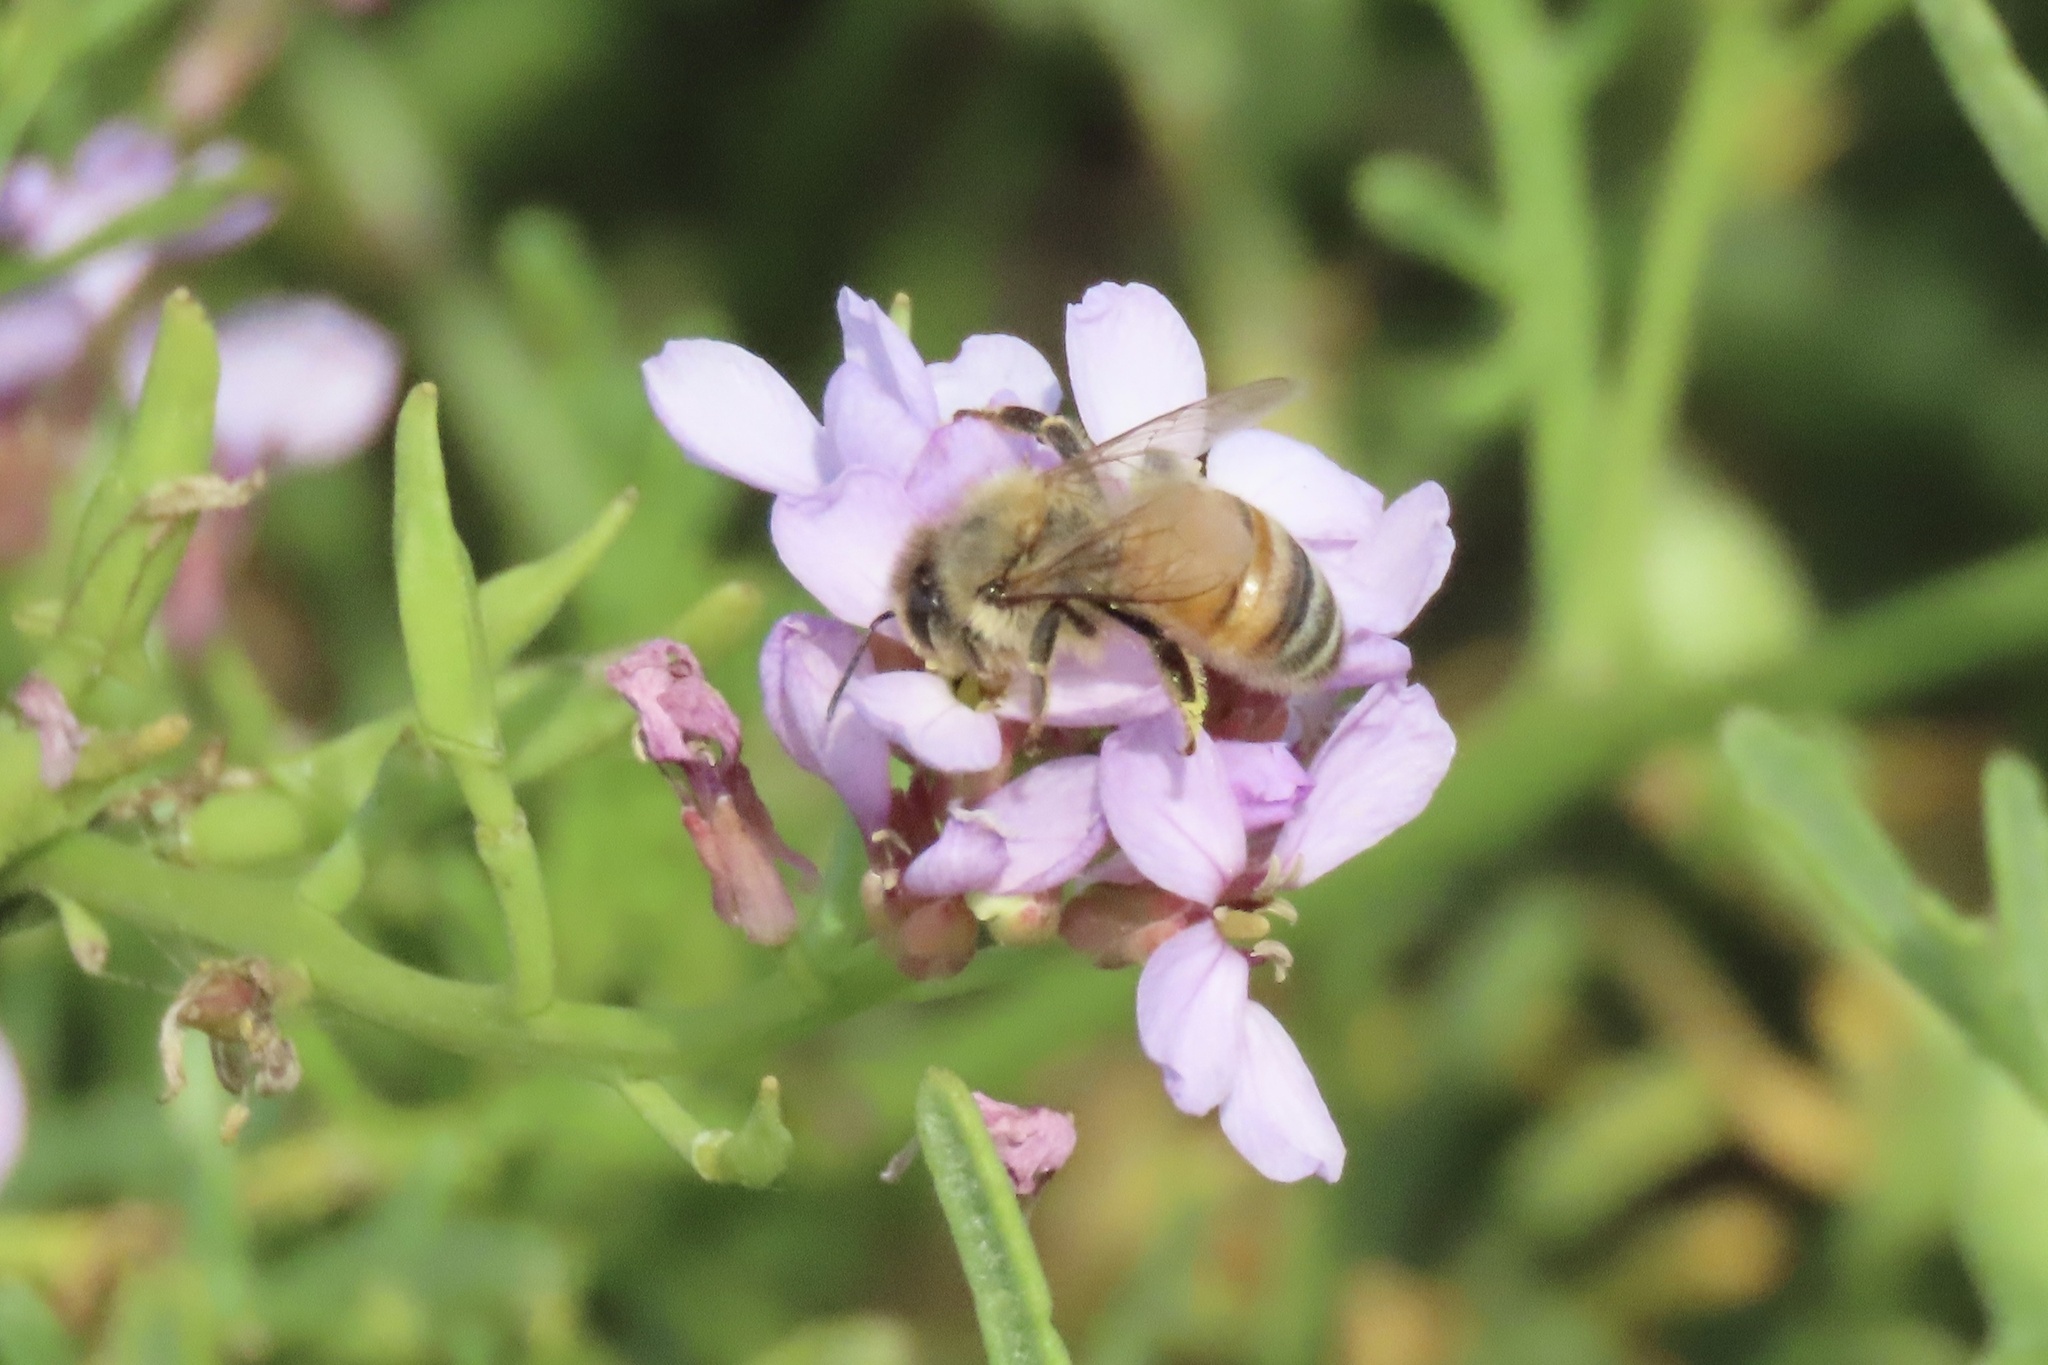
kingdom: Animalia
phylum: Arthropoda
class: Insecta
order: Hymenoptera
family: Apidae
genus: Apis
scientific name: Apis mellifera
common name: Honey bee
